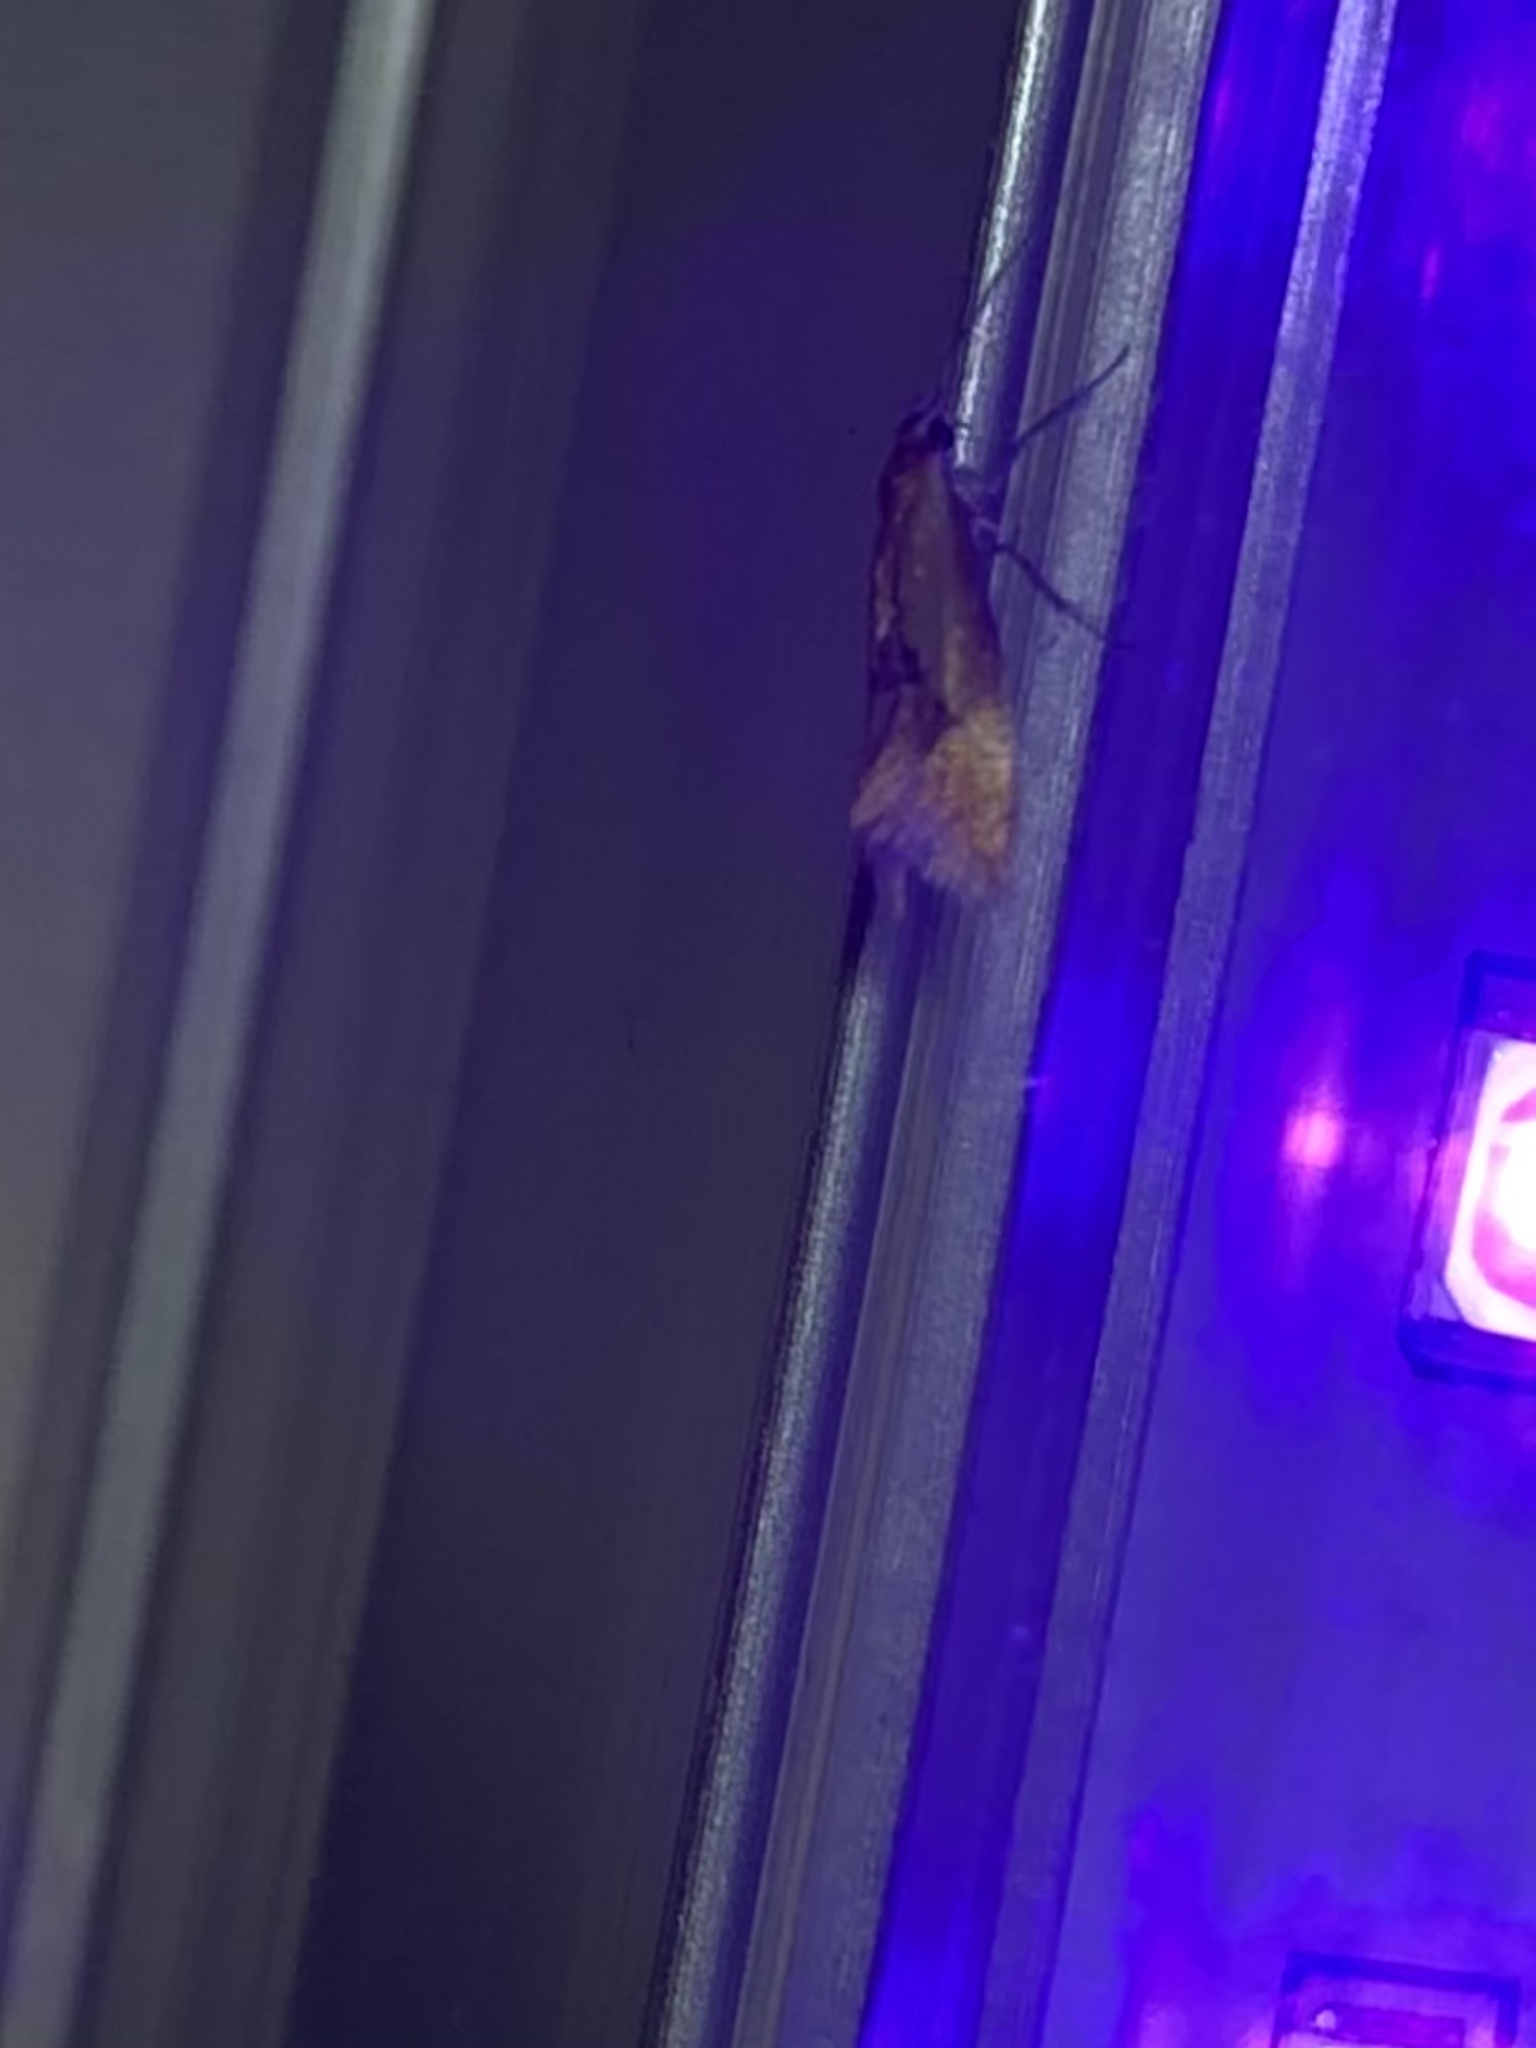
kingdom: Animalia
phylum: Arthropoda
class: Insecta
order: Lepidoptera
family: Oecophoridae
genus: Batia
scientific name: Batia lunaris
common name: Moth
